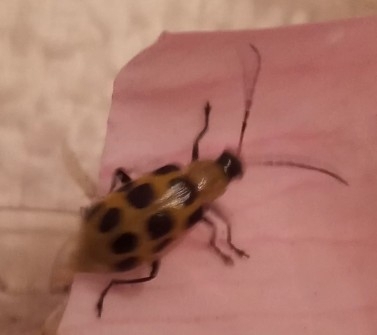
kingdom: Animalia
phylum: Arthropoda
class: Insecta
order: Coleoptera
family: Chrysomelidae
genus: Diabrotica
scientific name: Diabrotica undecimpunctata
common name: Spotted cucumber beetle
